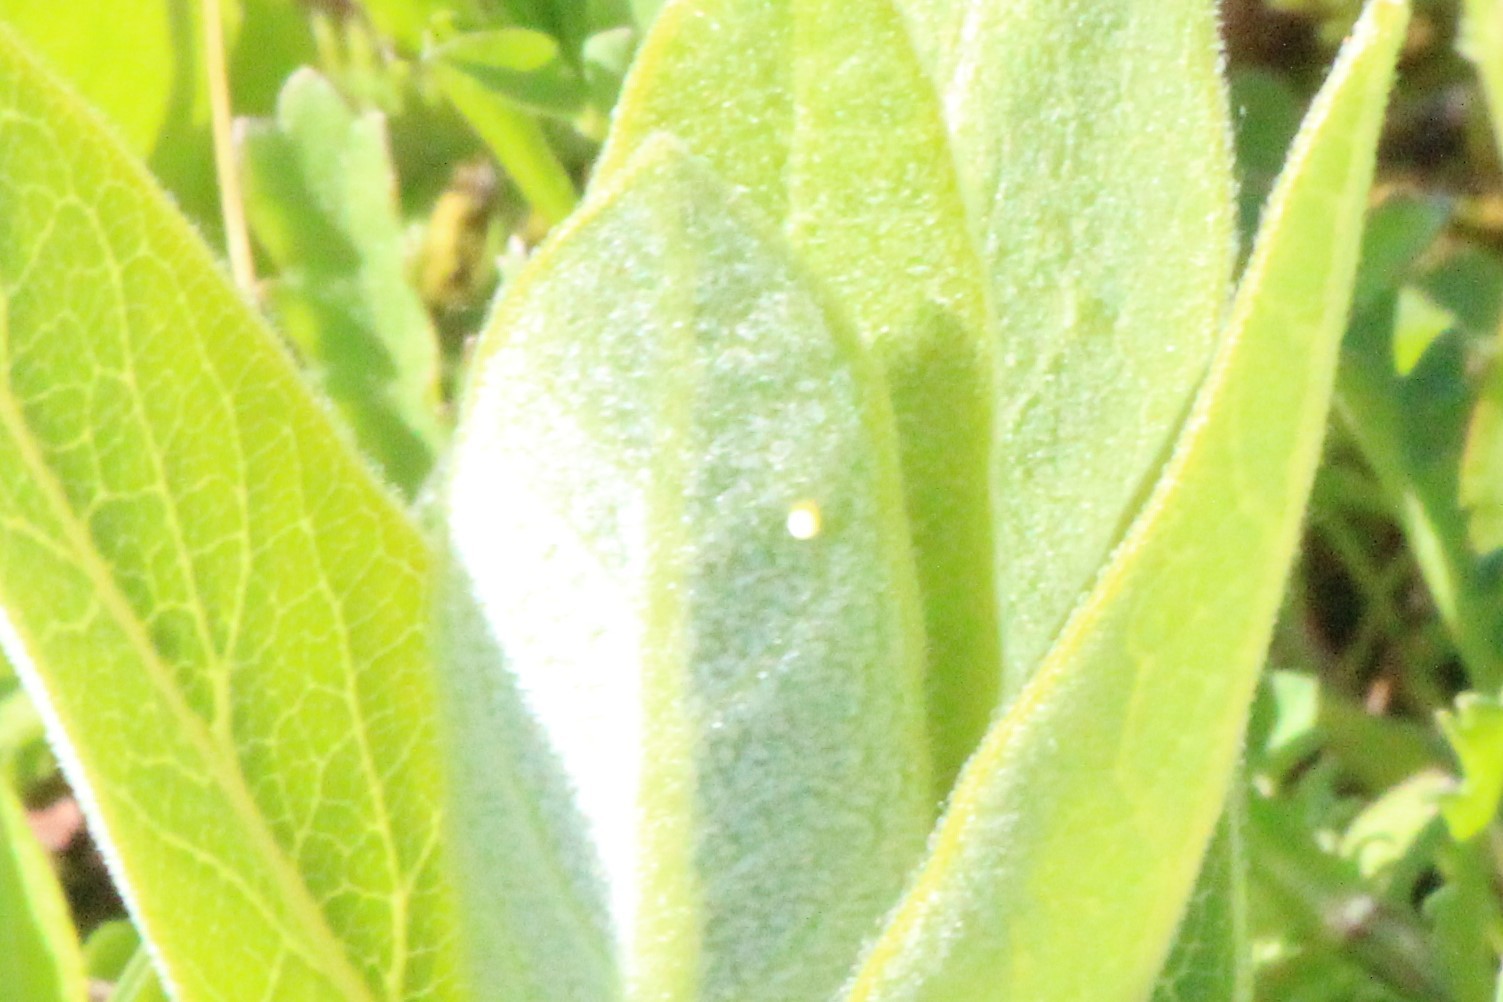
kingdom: Plantae
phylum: Tracheophyta
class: Magnoliopsida
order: Gentianales
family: Apocynaceae
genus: Asclepias
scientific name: Asclepias syriaca
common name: Common milkweed
